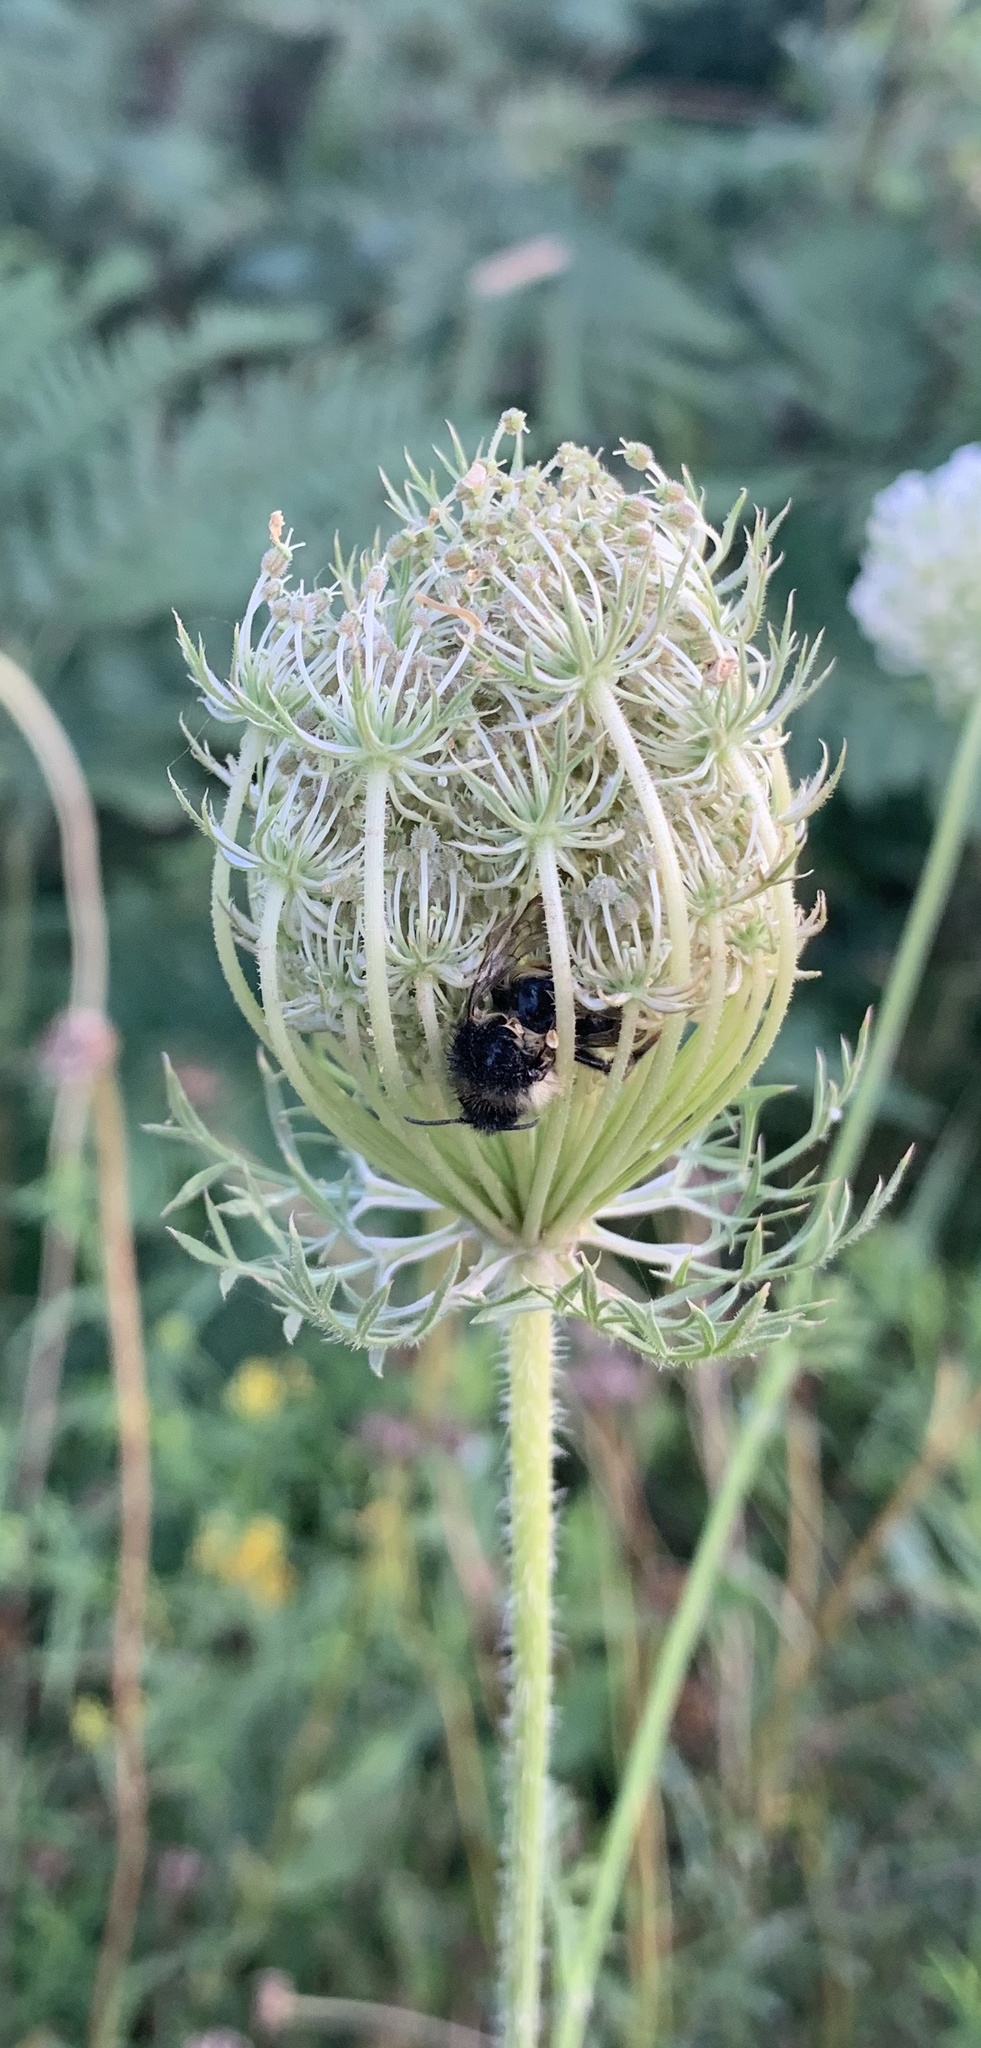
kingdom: Plantae
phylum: Tracheophyta
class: Magnoliopsida
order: Apiales
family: Apiaceae
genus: Daucus
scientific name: Daucus carota
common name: Wild carrot
